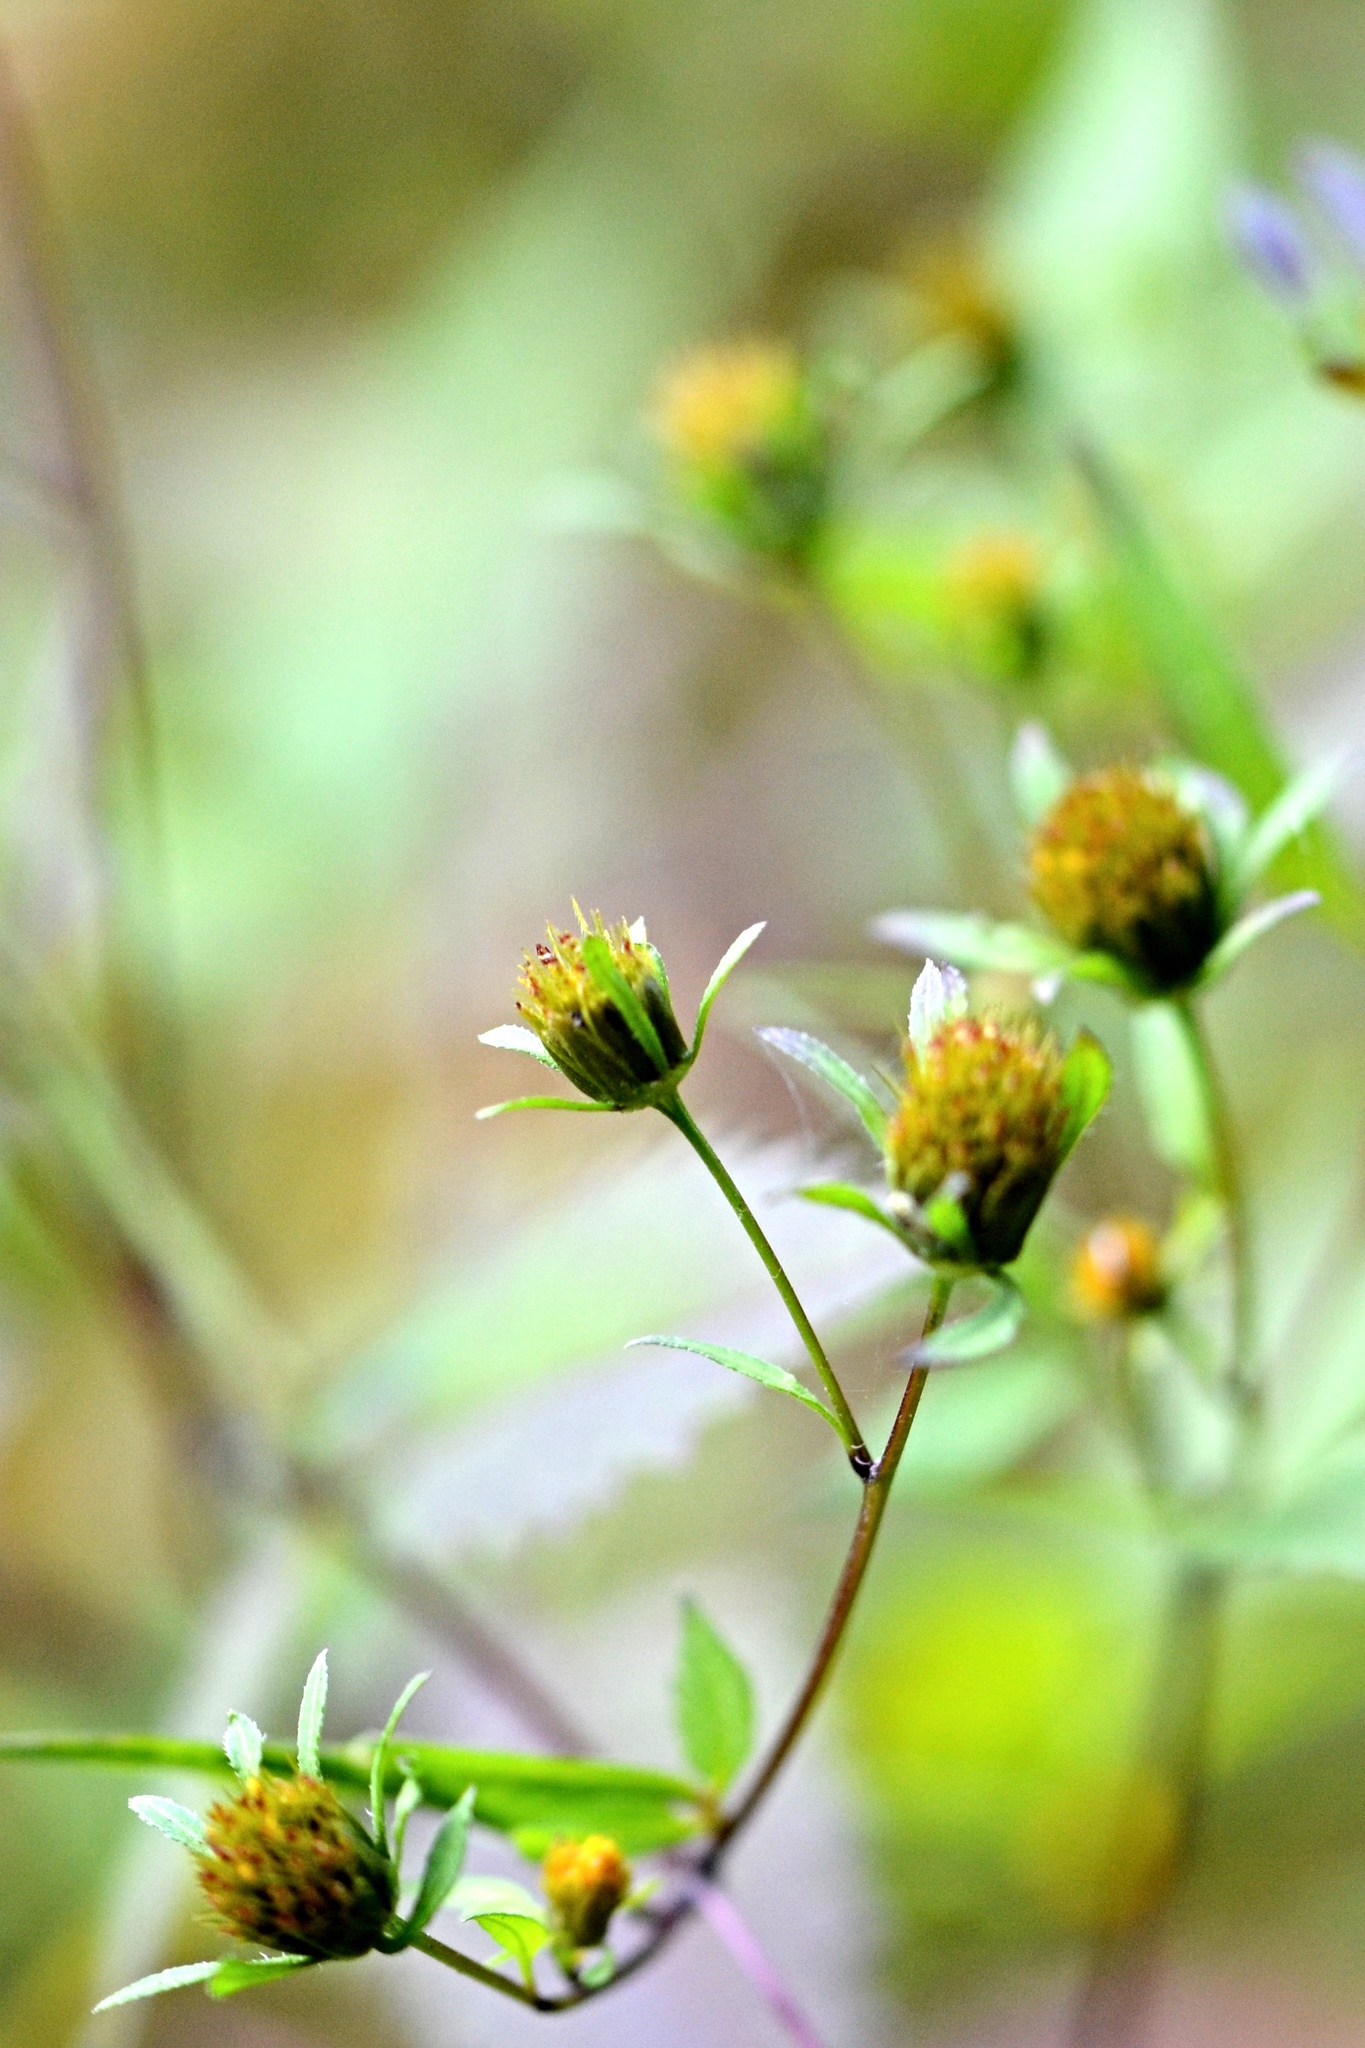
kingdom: Plantae
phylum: Tracheophyta
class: Magnoliopsida
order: Asterales
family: Asteraceae
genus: Bidens
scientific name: Bidens frondosa
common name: Beggarticks
